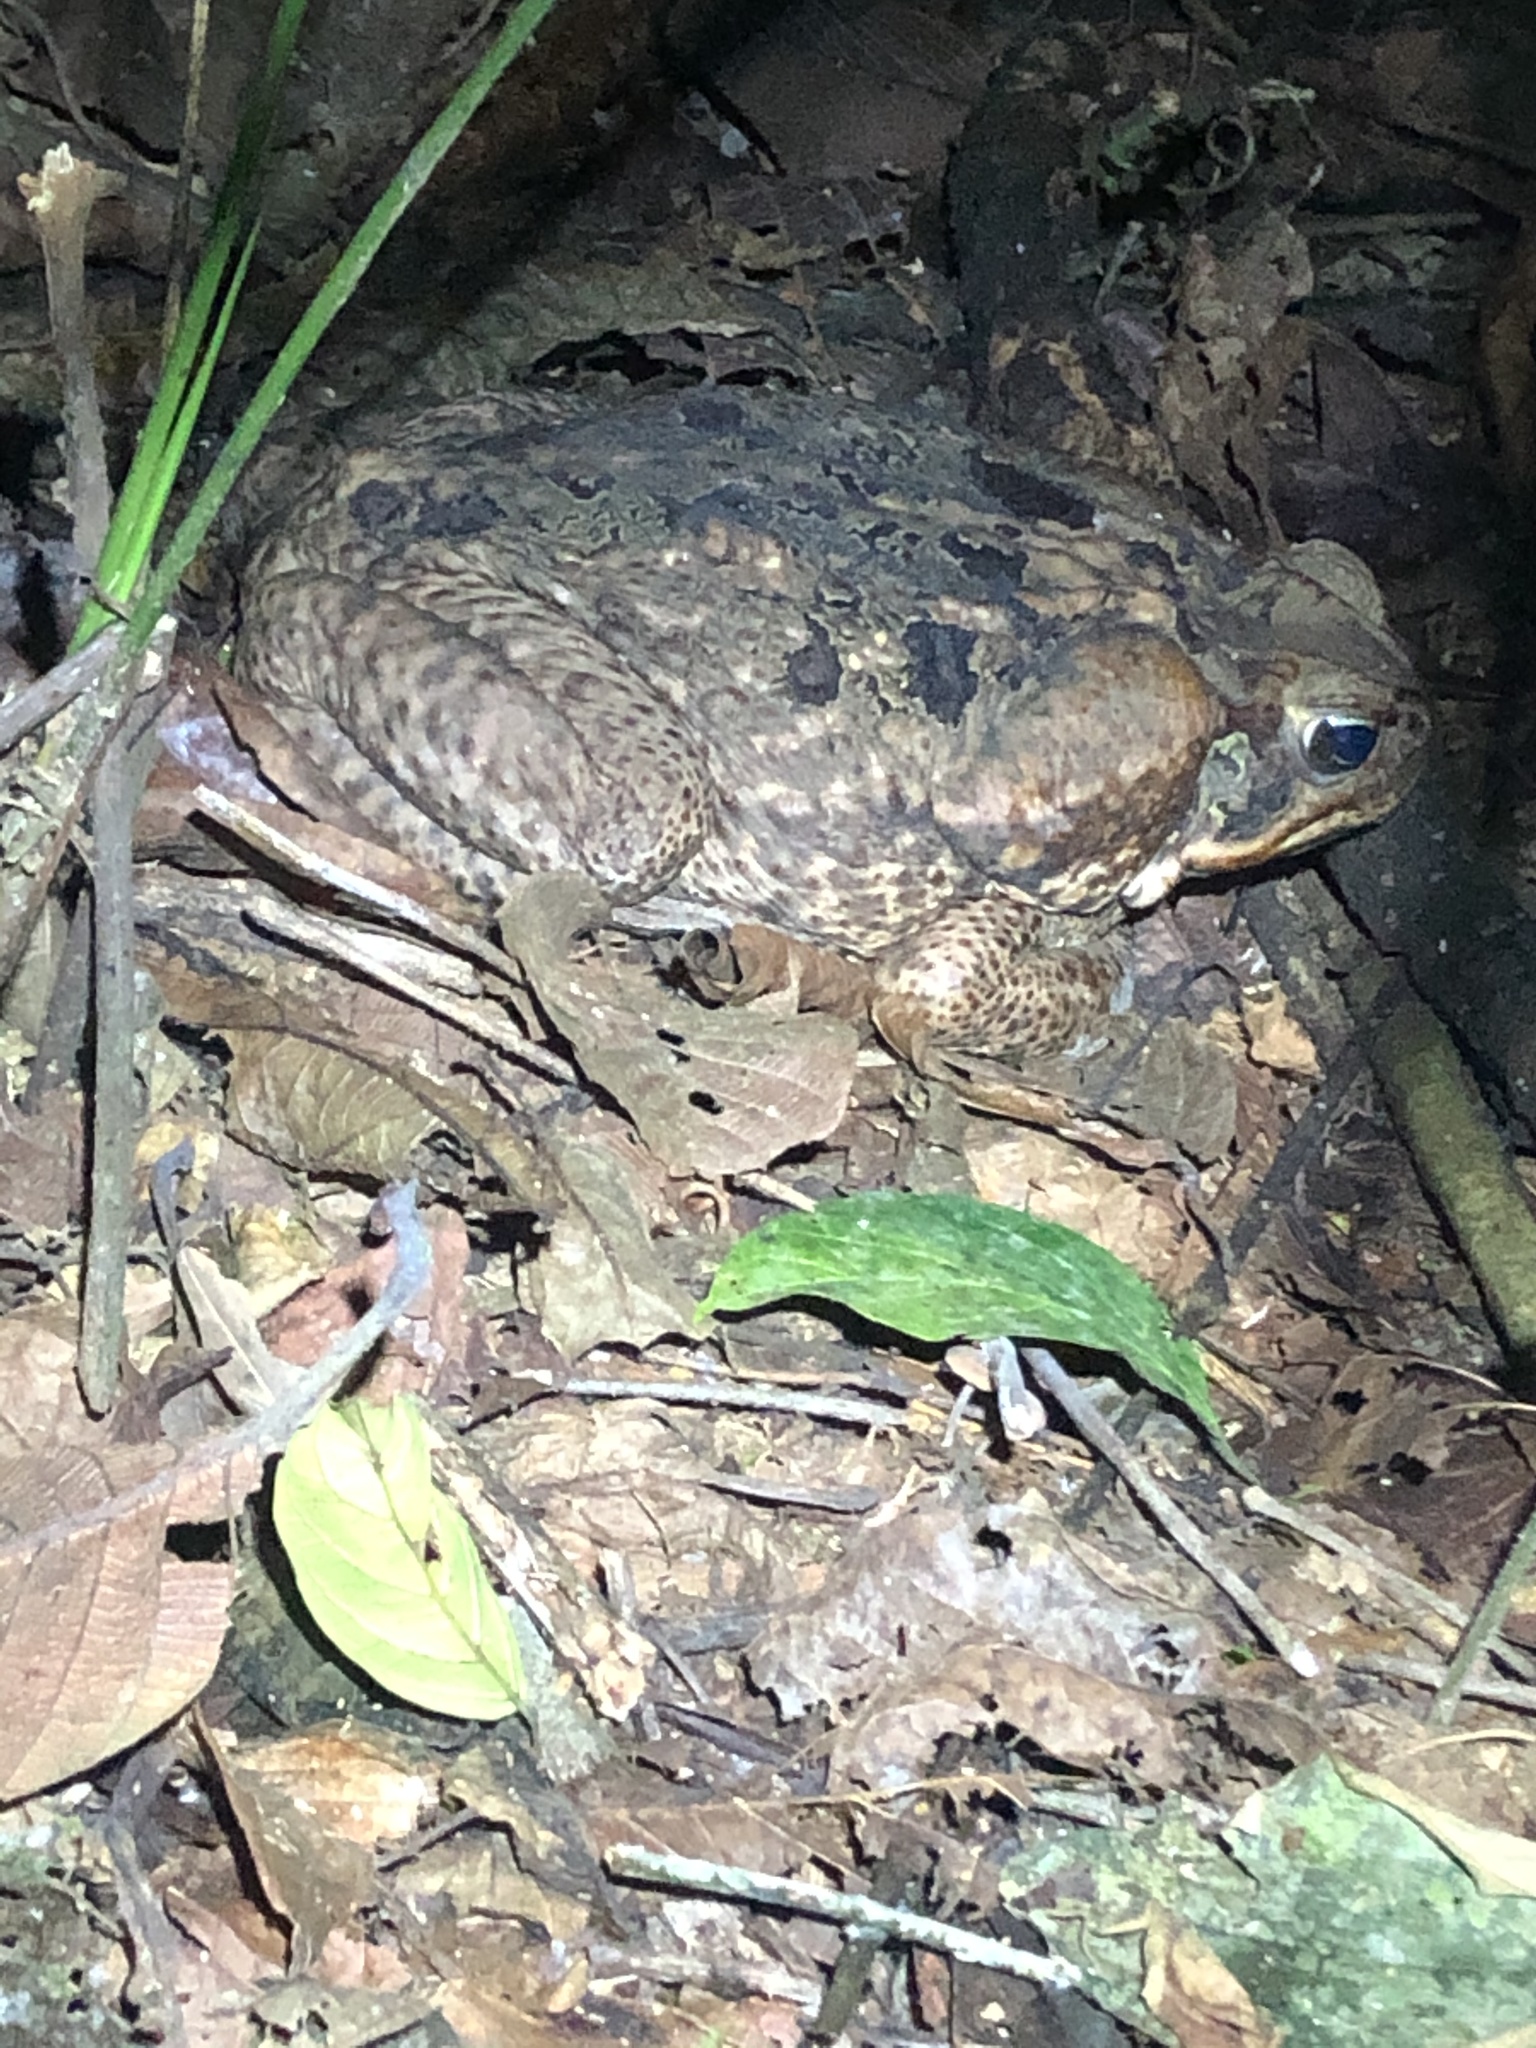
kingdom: Animalia
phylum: Chordata
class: Amphibia
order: Anura
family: Bufonidae
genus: Rhinella
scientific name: Rhinella marina
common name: Cane toad
